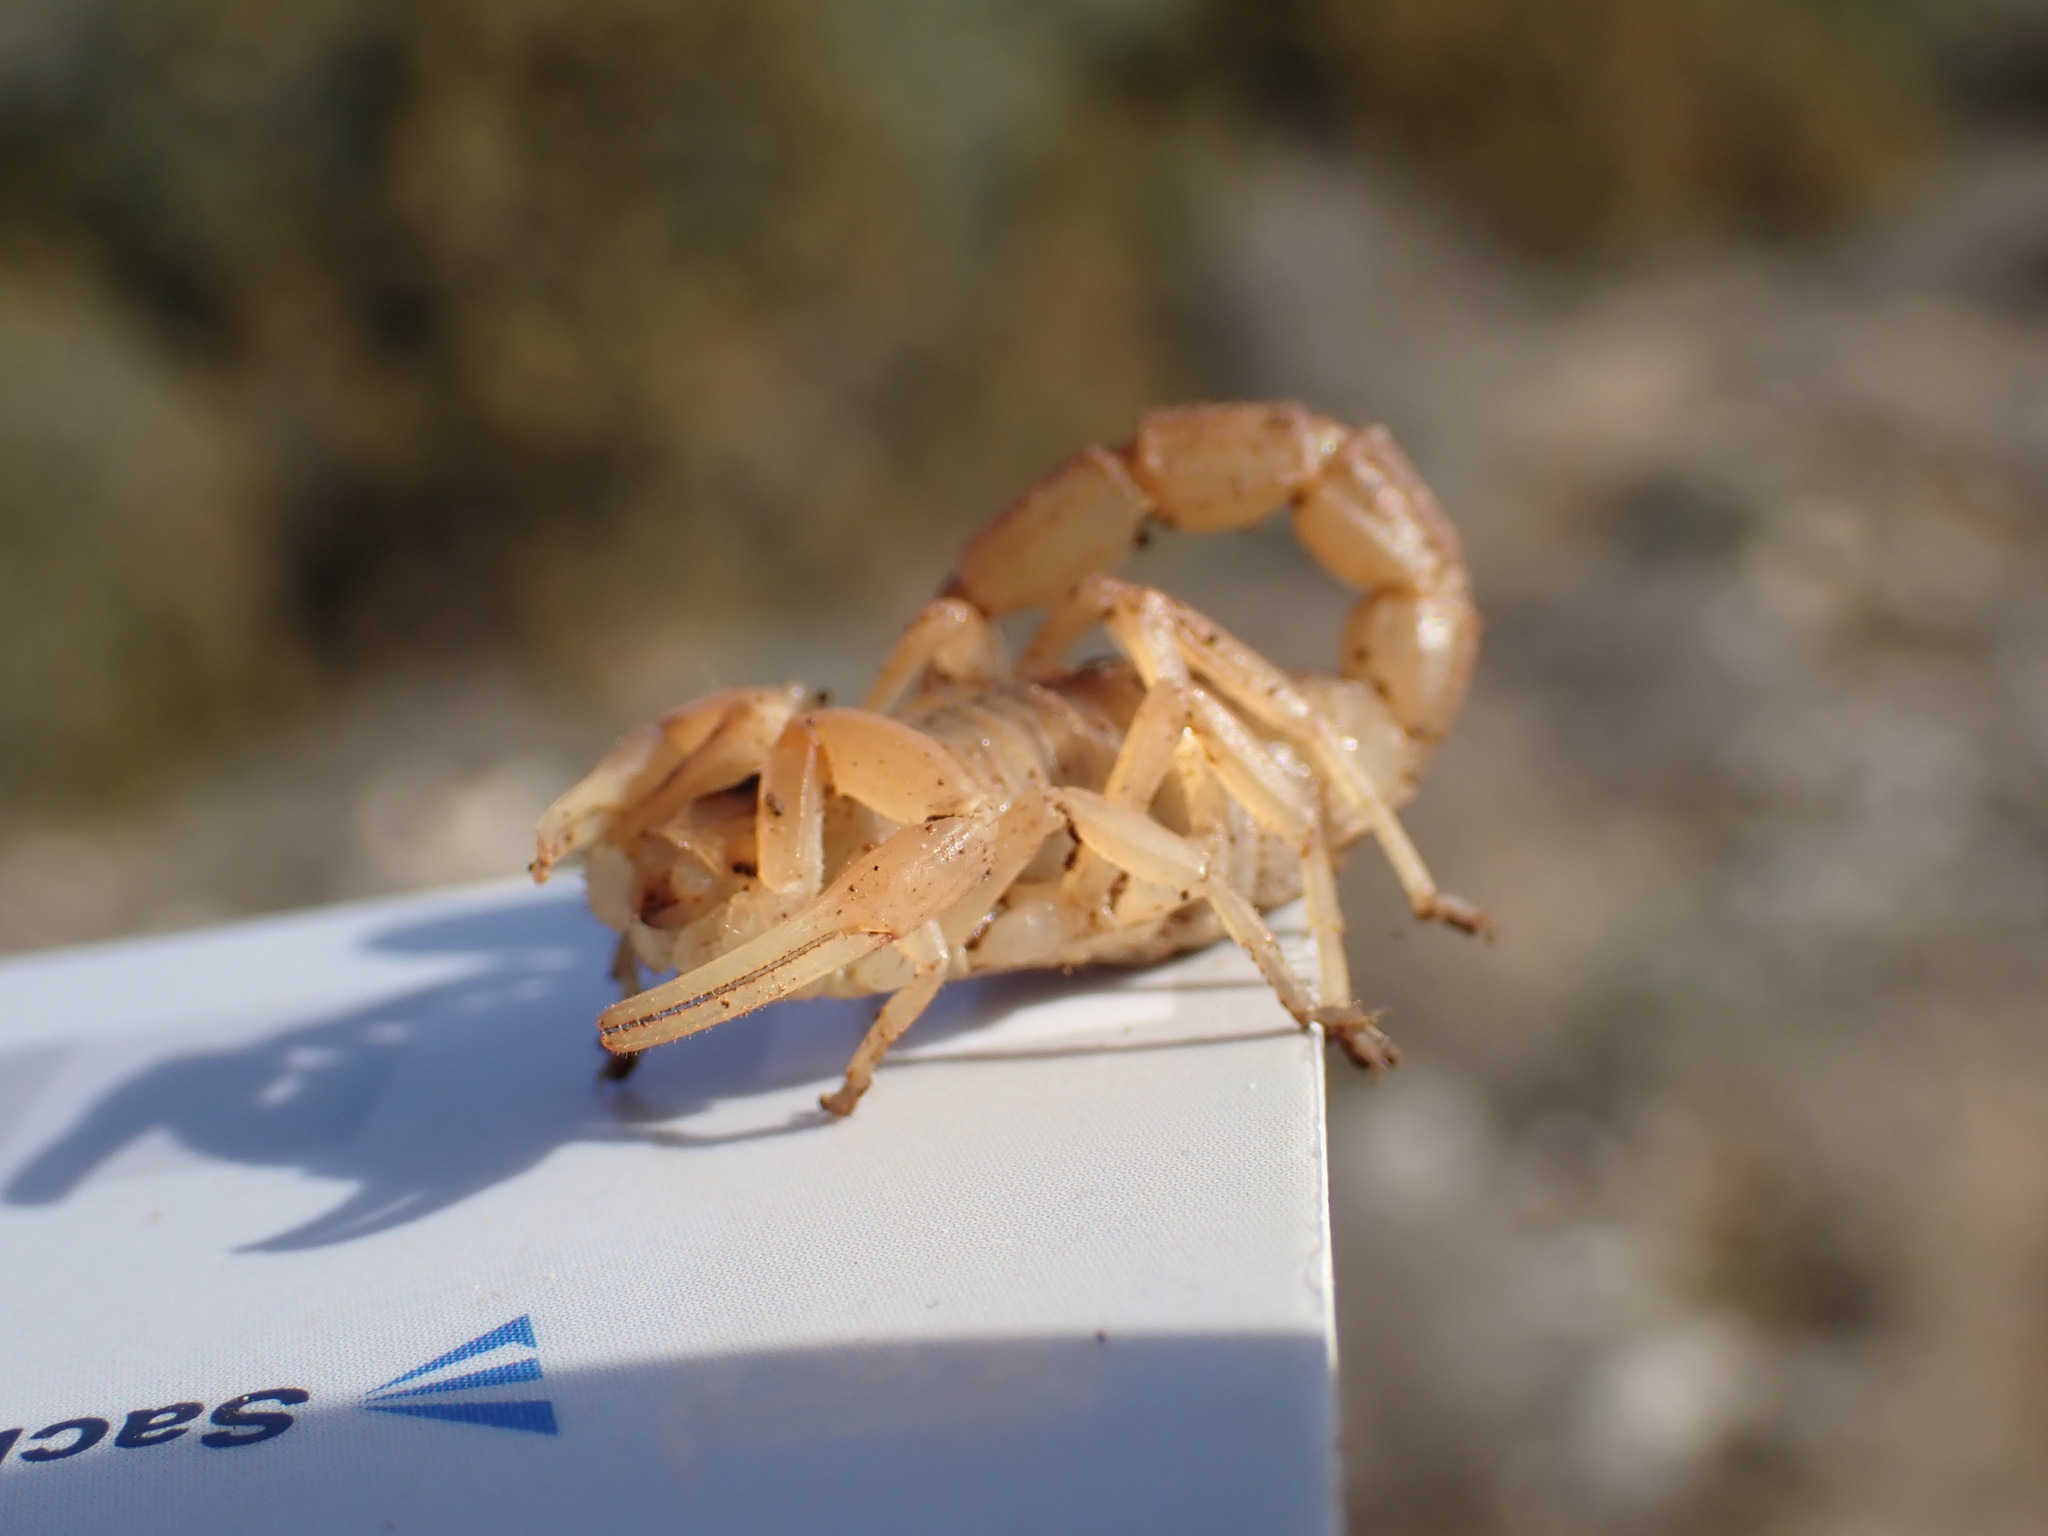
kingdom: Animalia
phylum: Arthropoda
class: Arachnida
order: Scorpiones
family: Buthidae
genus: Buthus
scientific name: Buthus occitanus
